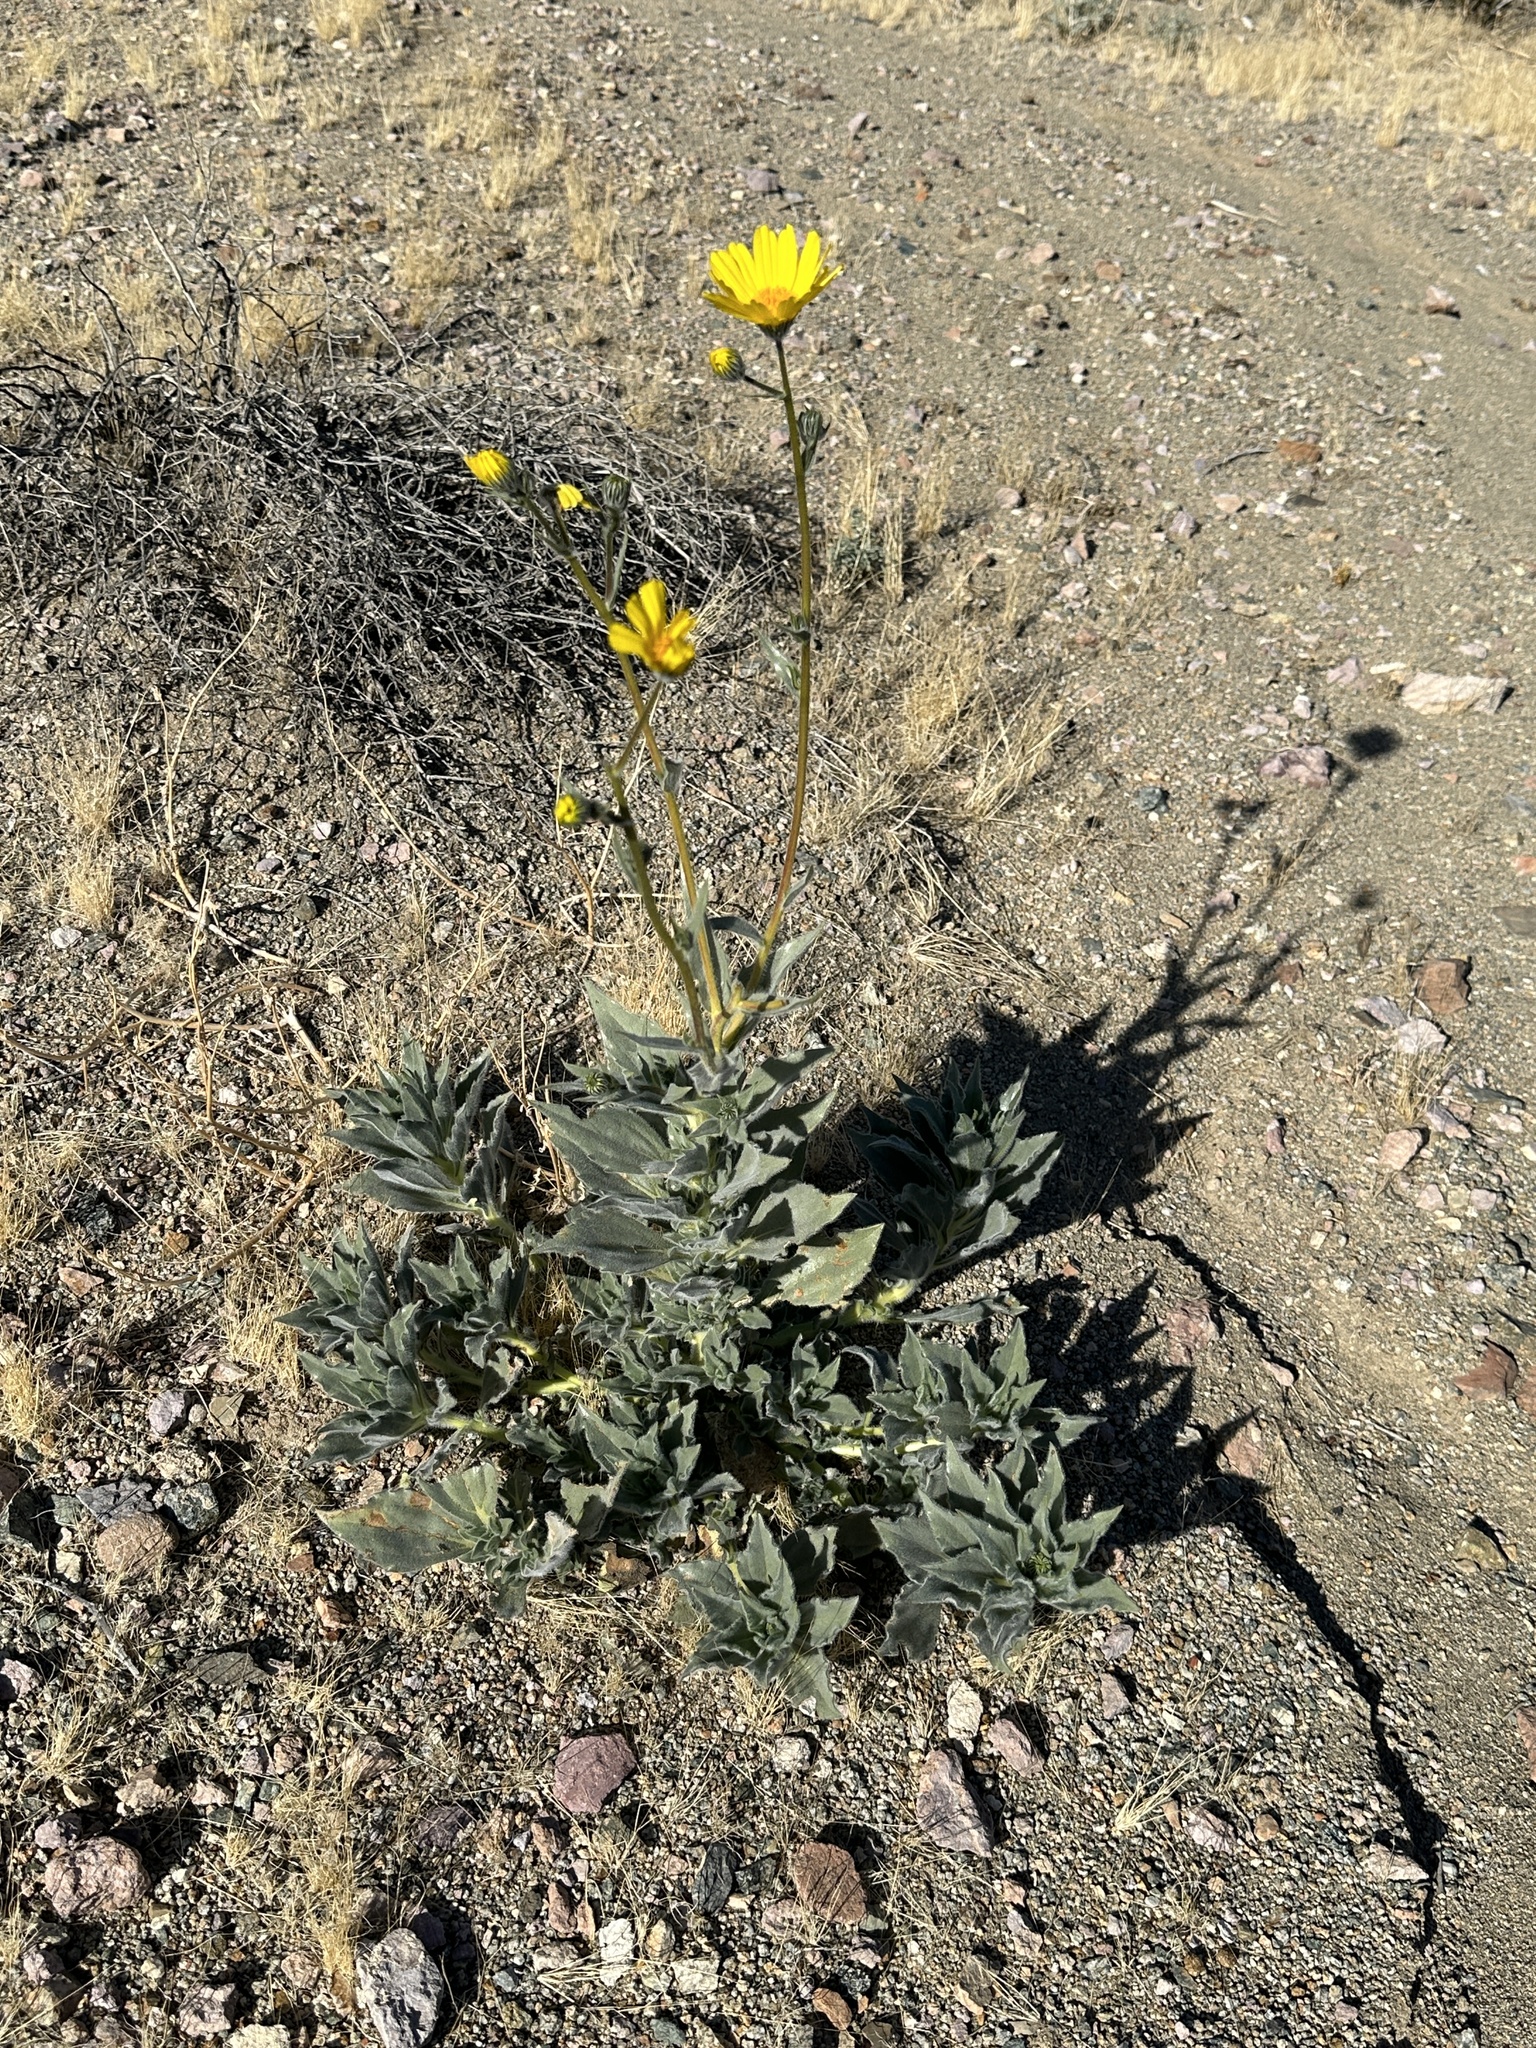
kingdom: Plantae
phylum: Tracheophyta
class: Magnoliopsida
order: Asterales
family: Asteraceae
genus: Geraea
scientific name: Geraea canescens
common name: Desert-gold
